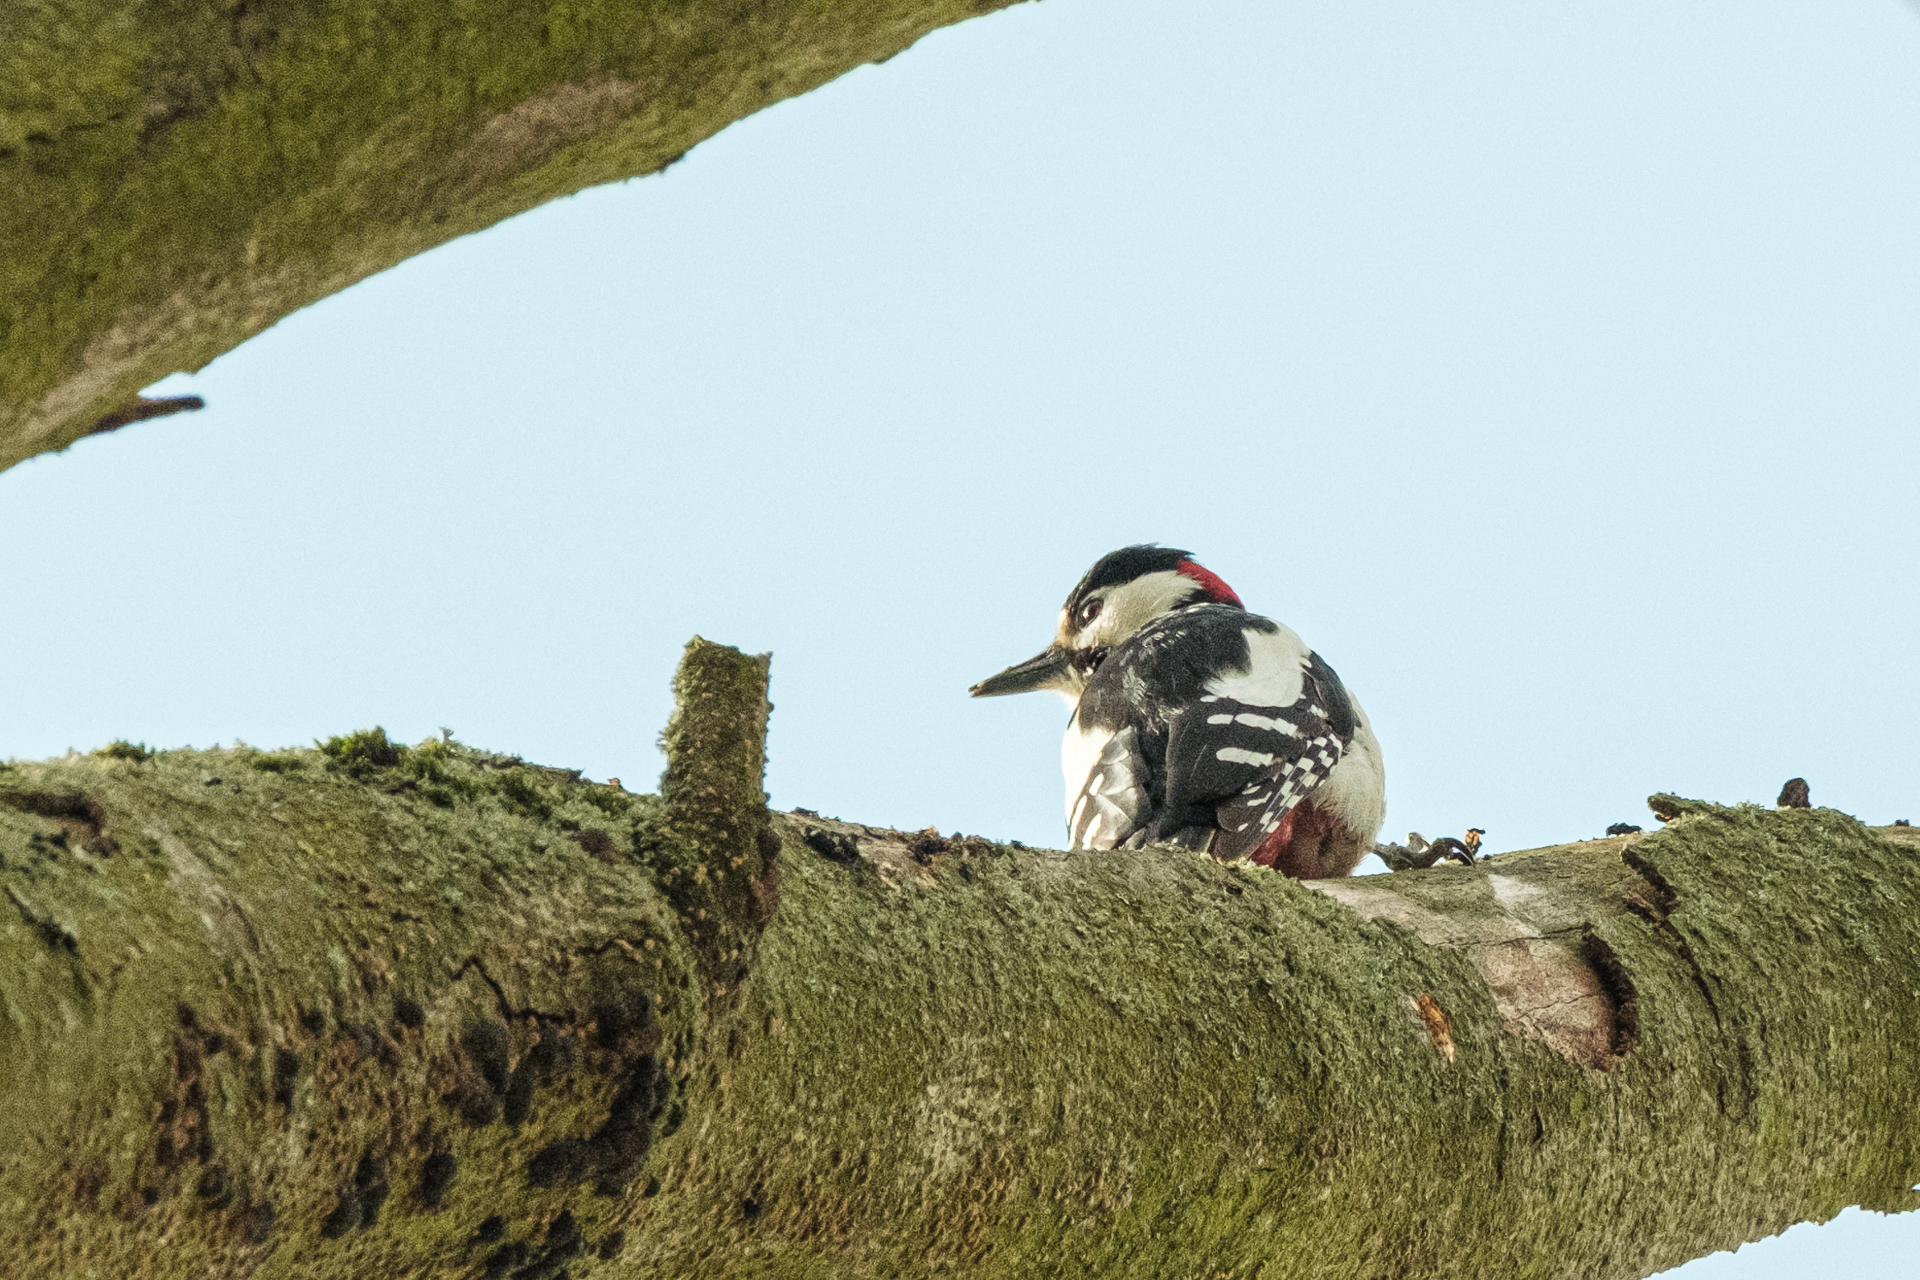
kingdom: Animalia
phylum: Chordata
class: Aves
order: Piciformes
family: Picidae
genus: Dendrocopos
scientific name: Dendrocopos major
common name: Great spotted woodpecker
